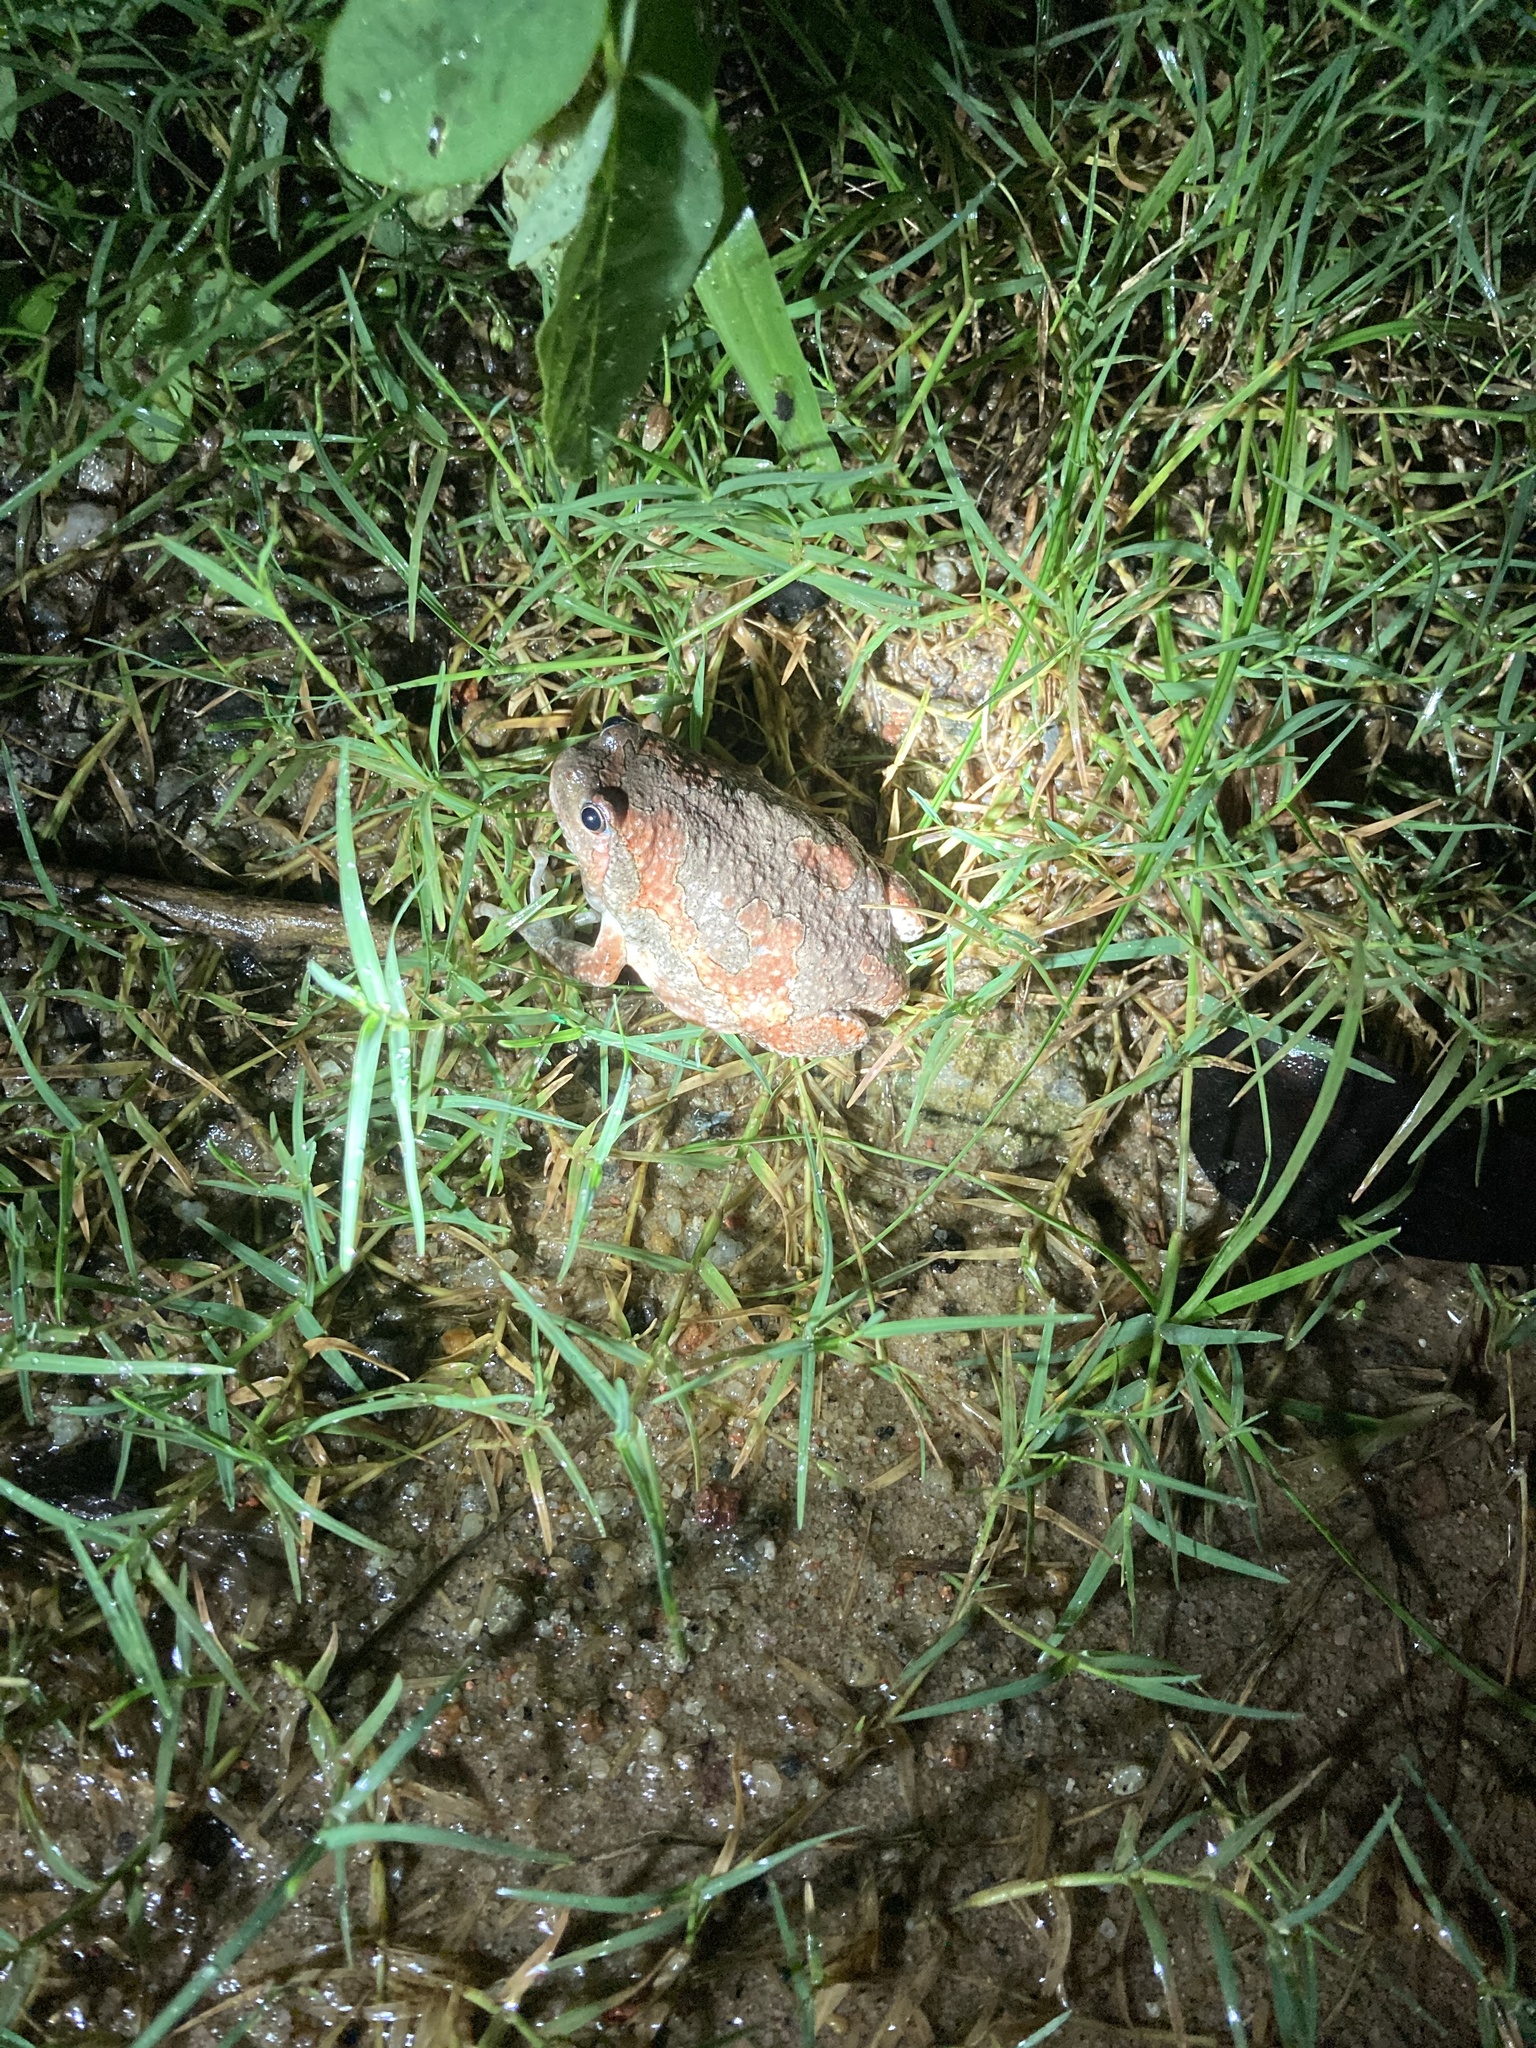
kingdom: Animalia
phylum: Chordata
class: Amphibia
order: Anura
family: Microhylidae
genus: Uperodon
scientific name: Uperodon taprobanicus
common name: Ceylon kaloula
